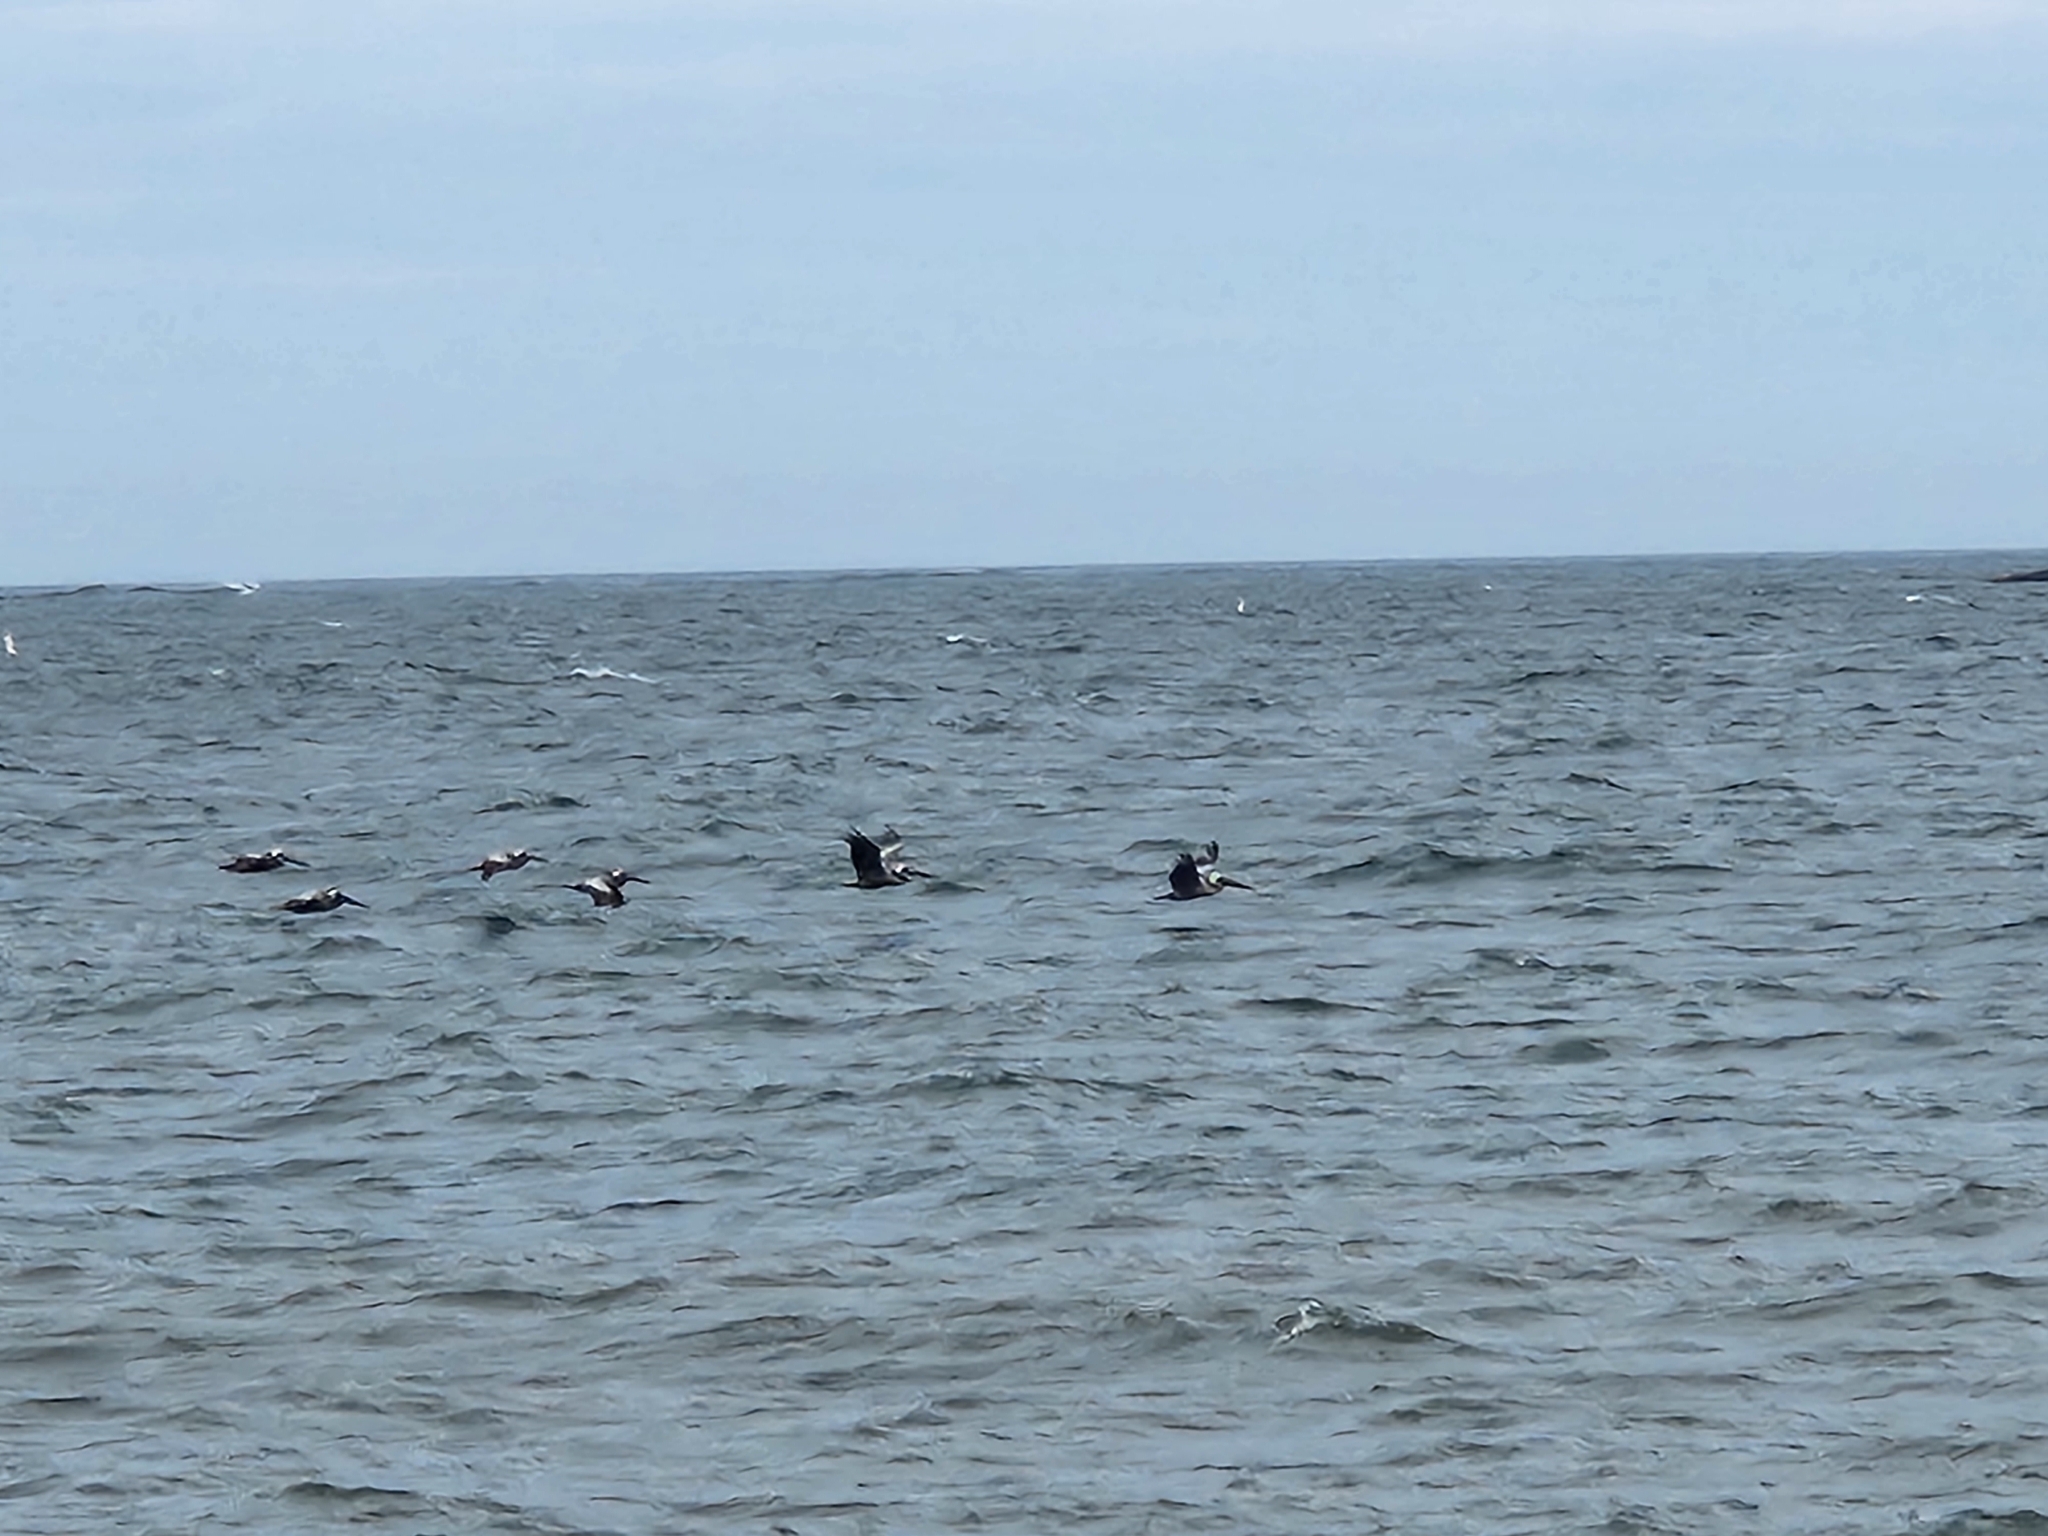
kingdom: Animalia
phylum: Chordata
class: Aves
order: Pelecaniformes
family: Pelecanidae
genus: Pelecanus
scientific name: Pelecanus occidentalis
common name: Brown pelican
